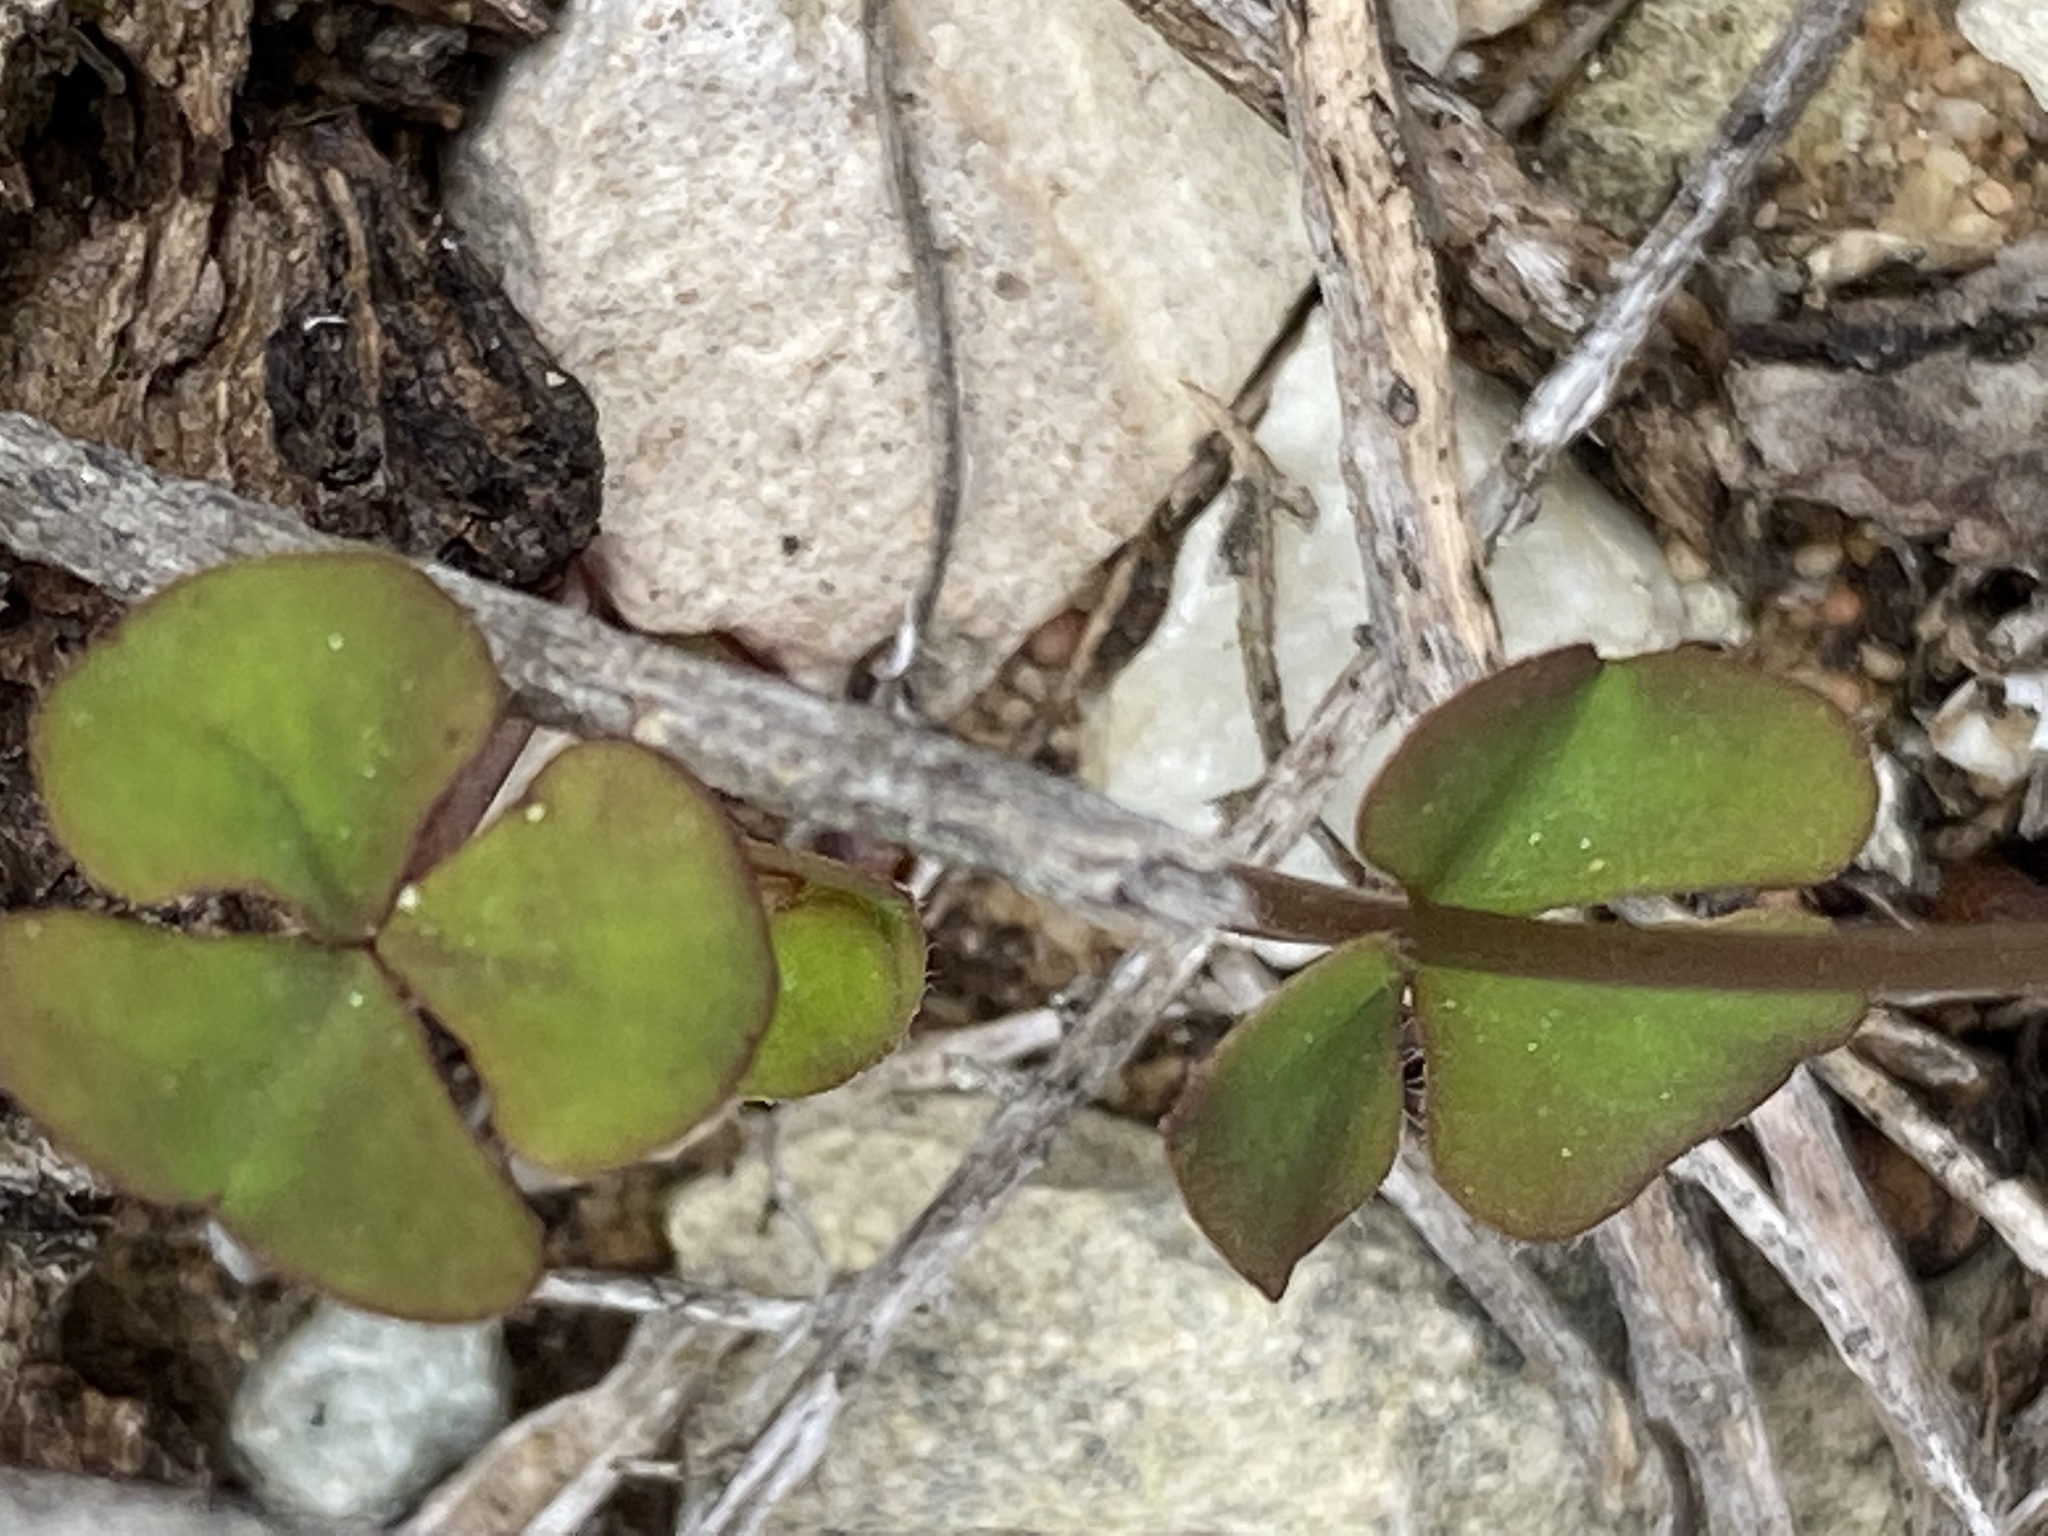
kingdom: Plantae
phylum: Tracheophyta
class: Magnoliopsida
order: Oxalidales
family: Oxalidaceae
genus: Oxalis
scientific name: Oxalis depressa
